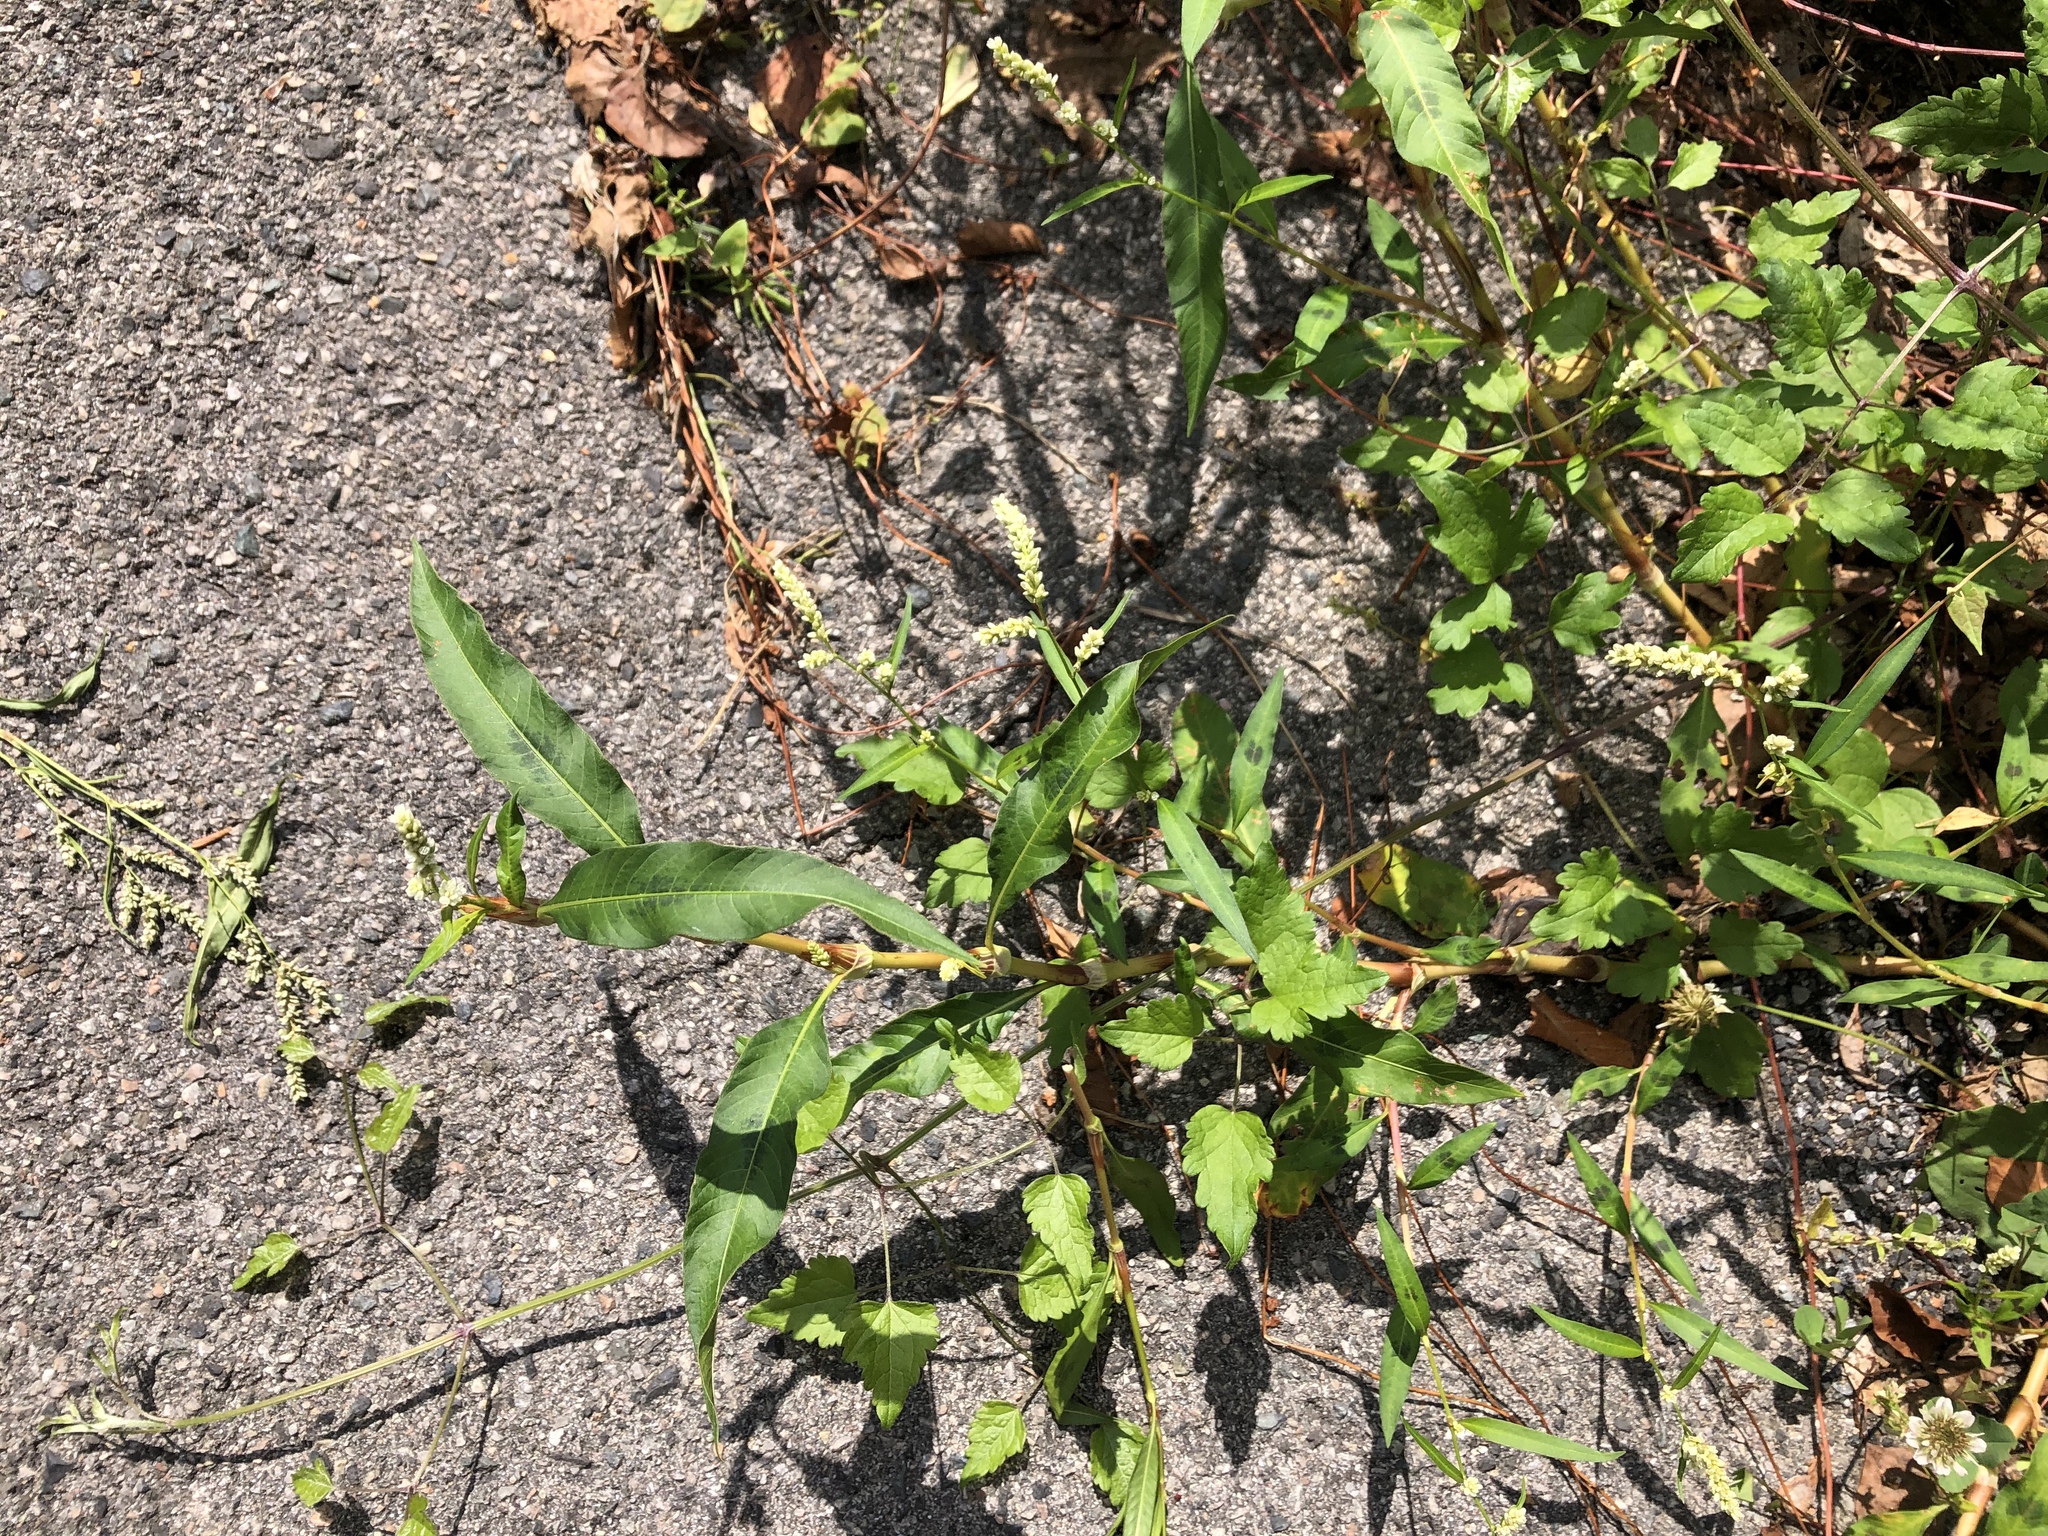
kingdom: Plantae
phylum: Tracheophyta
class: Magnoliopsida
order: Caryophyllales
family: Polygonaceae
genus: Persicaria
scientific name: Persicaria lapathifolia
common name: Curlytop knotweed
